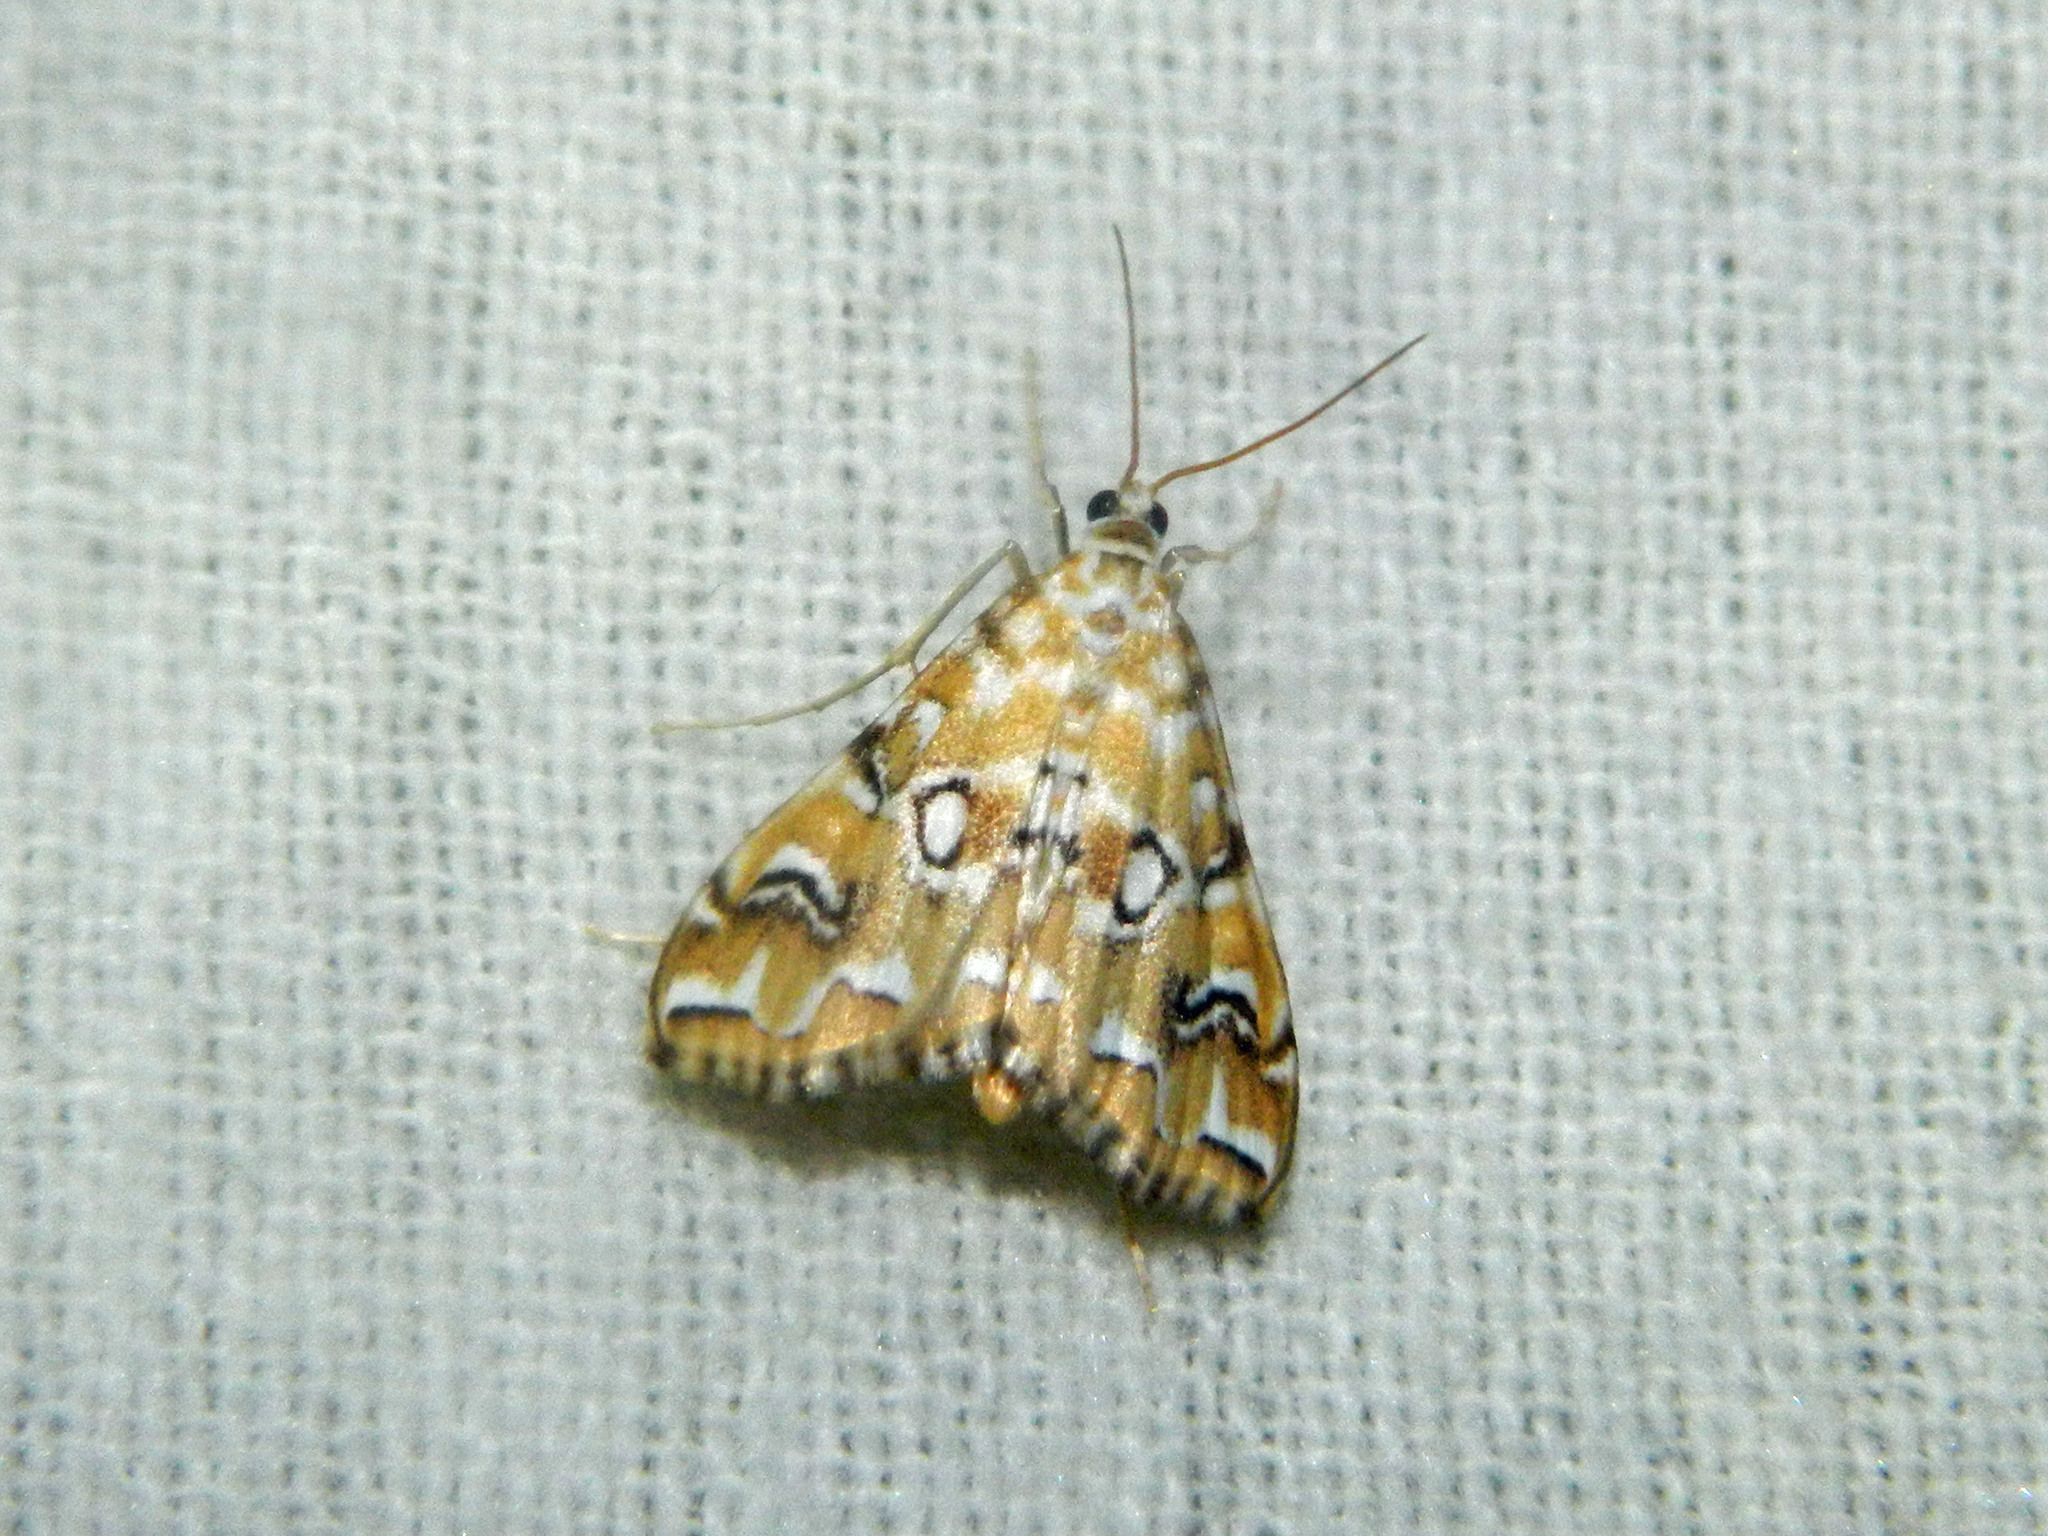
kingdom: Animalia
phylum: Arthropoda
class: Insecta
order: Lepidoptera
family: Crambidae
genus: Elophila
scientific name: Elophila icciusalis
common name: Pondside pyralid moth
